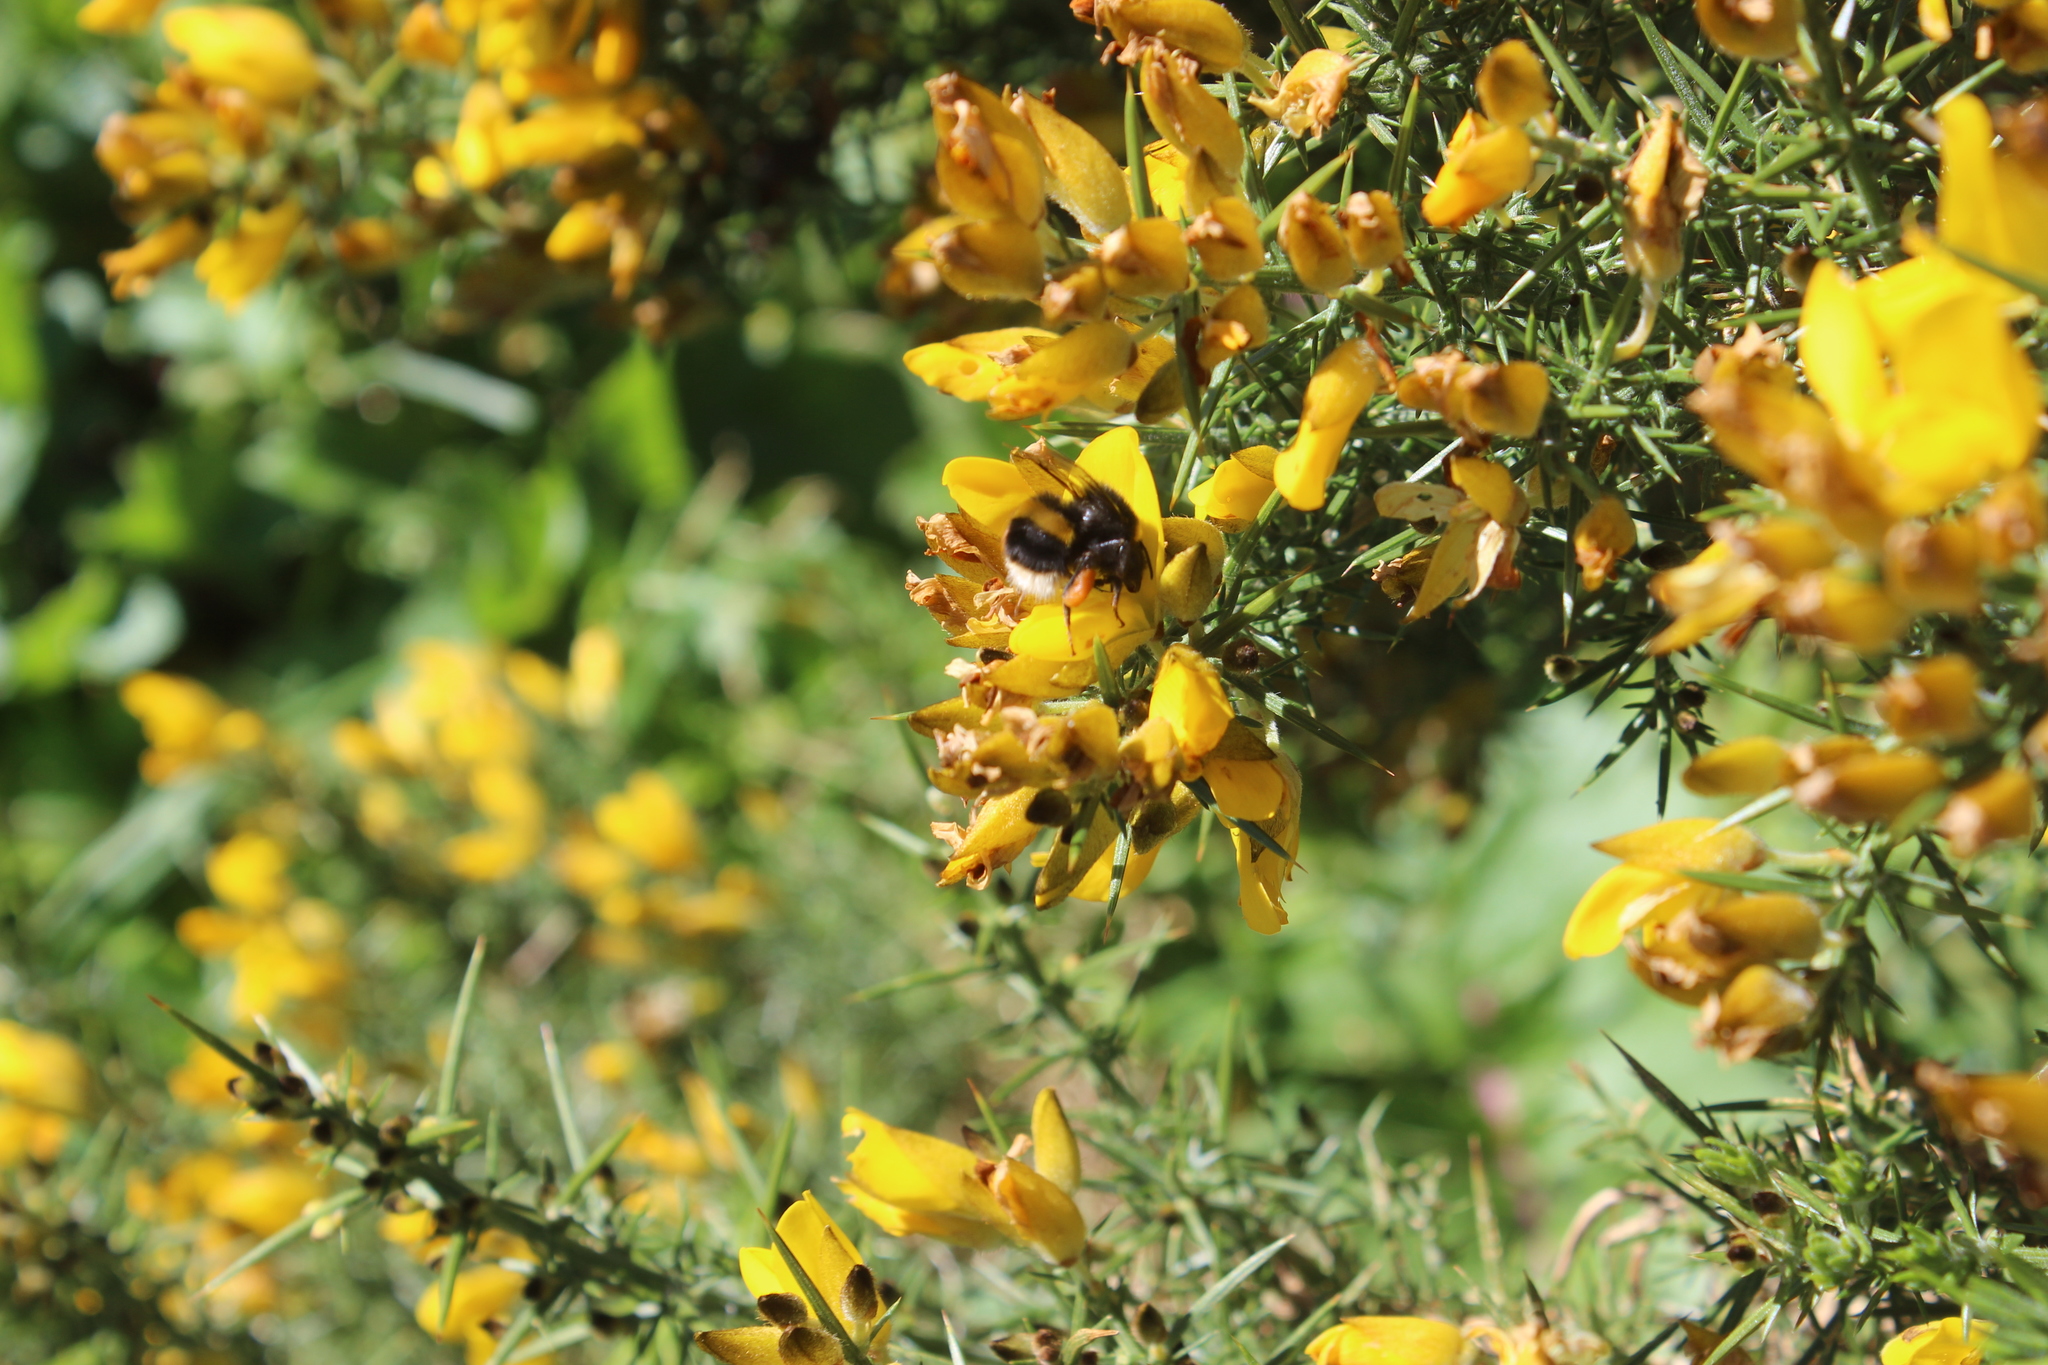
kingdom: Animalia
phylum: Arthropoda
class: Insecta
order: Hymenoptera
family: Apidae
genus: Bombus
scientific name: Bombus terrestris
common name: Buff-tailed bumblebee
